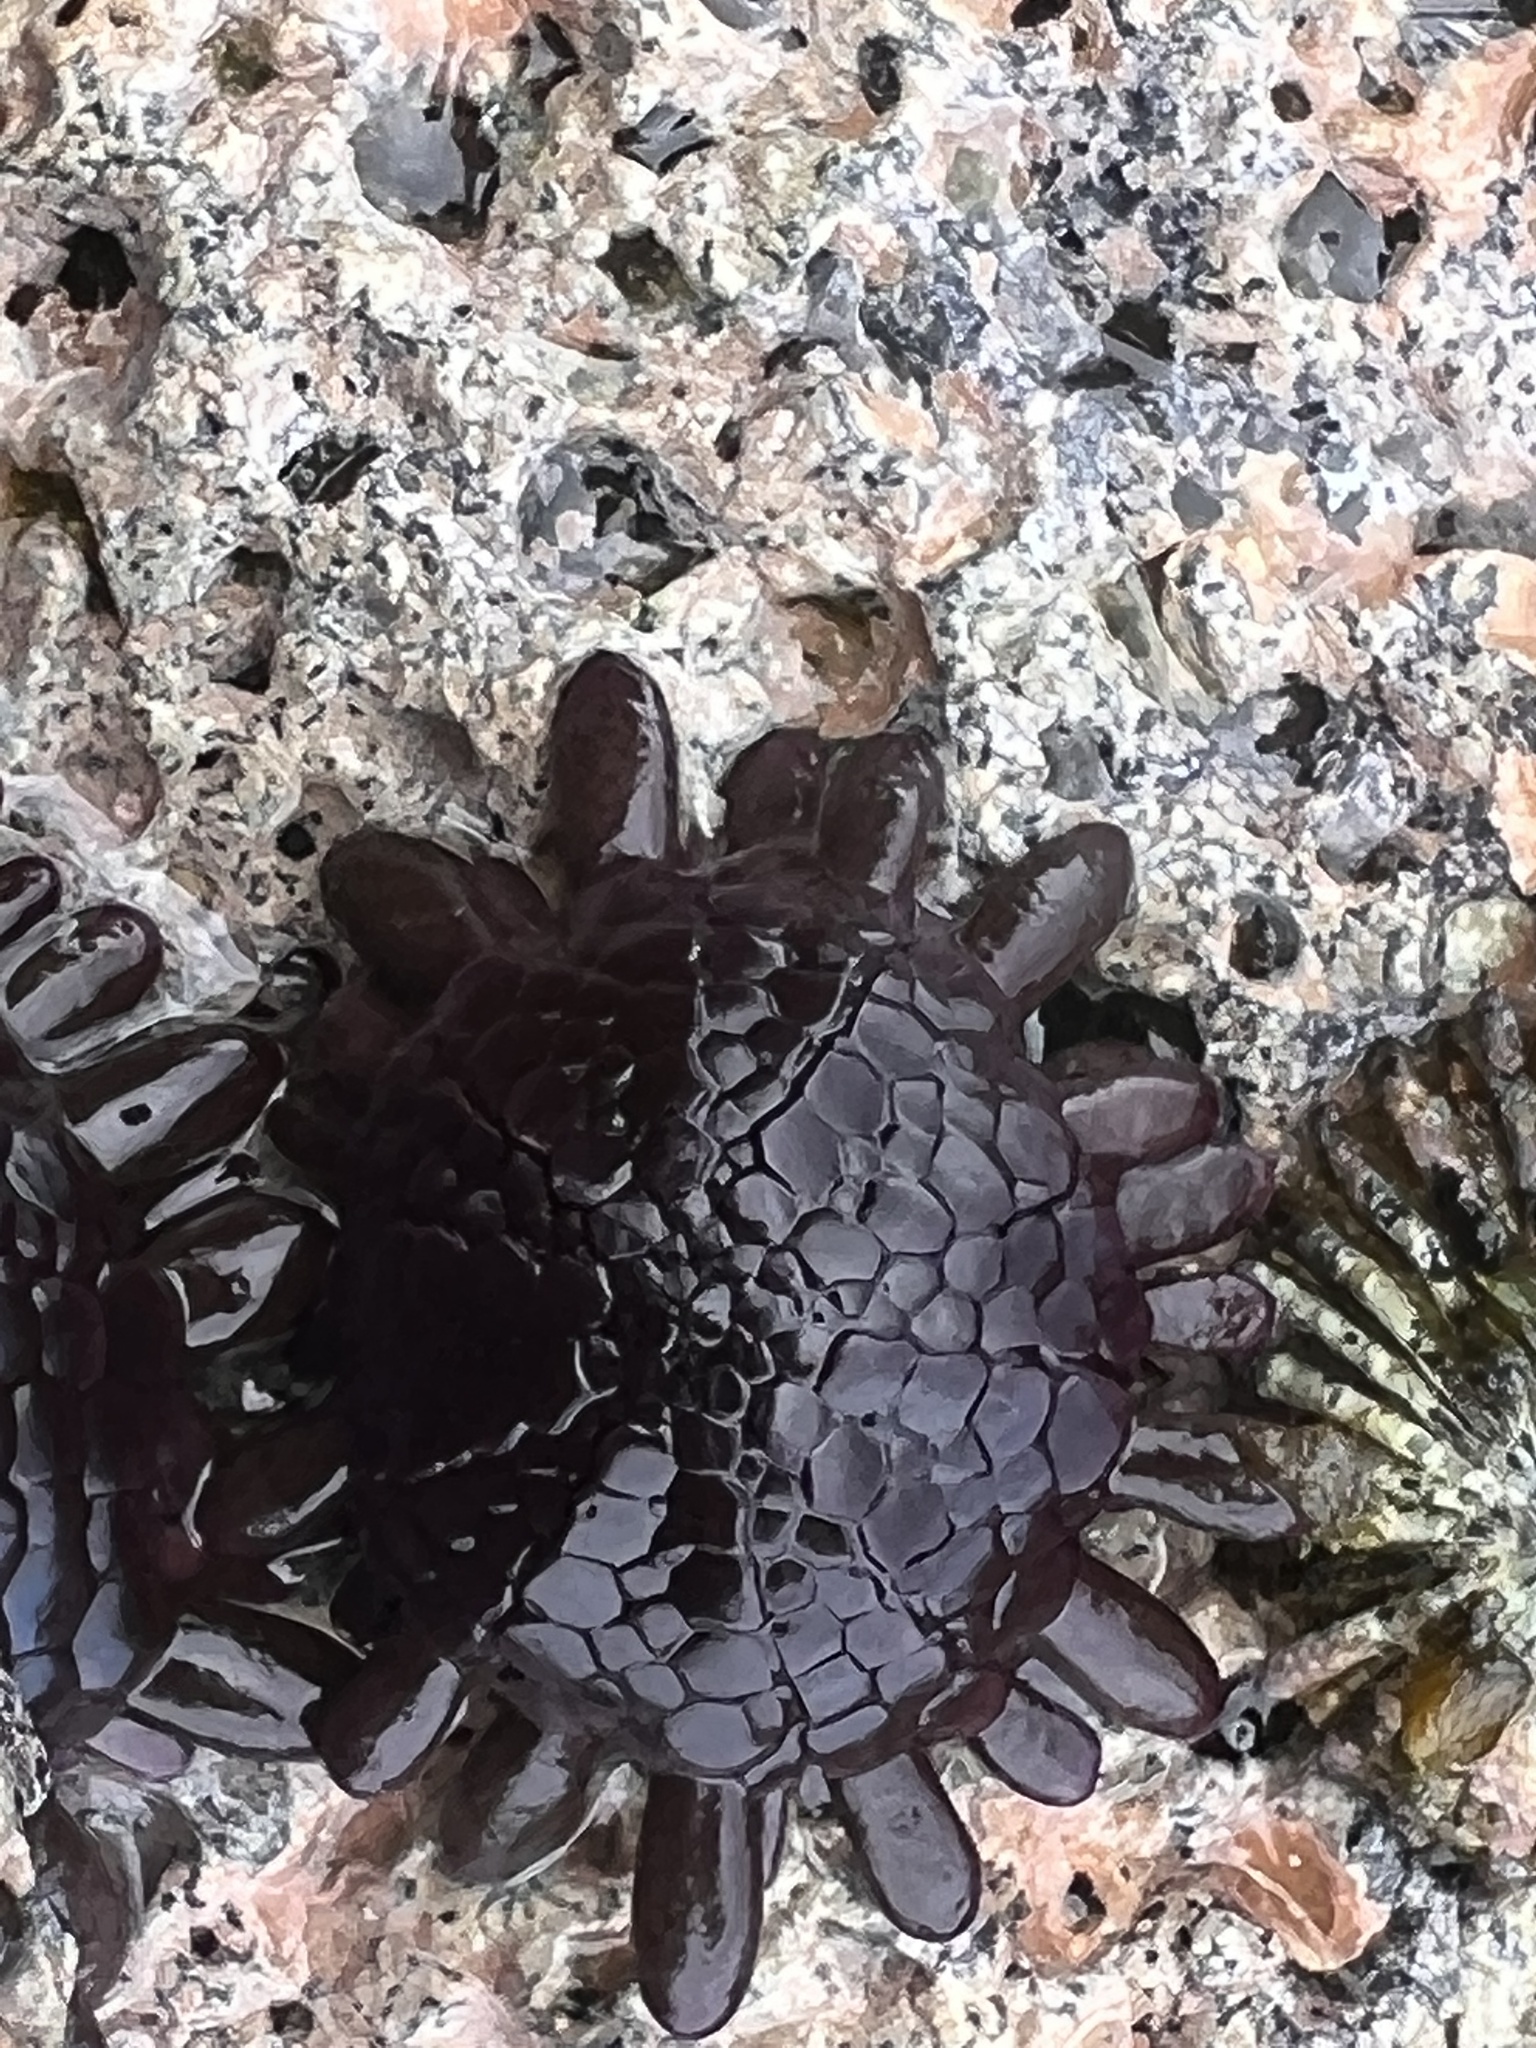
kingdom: Animalia
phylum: Echinodermata
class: Echinoidea
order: Camarodonta
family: Echinometridae
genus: Colobocentrotus
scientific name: Colobocentrotus atratus
